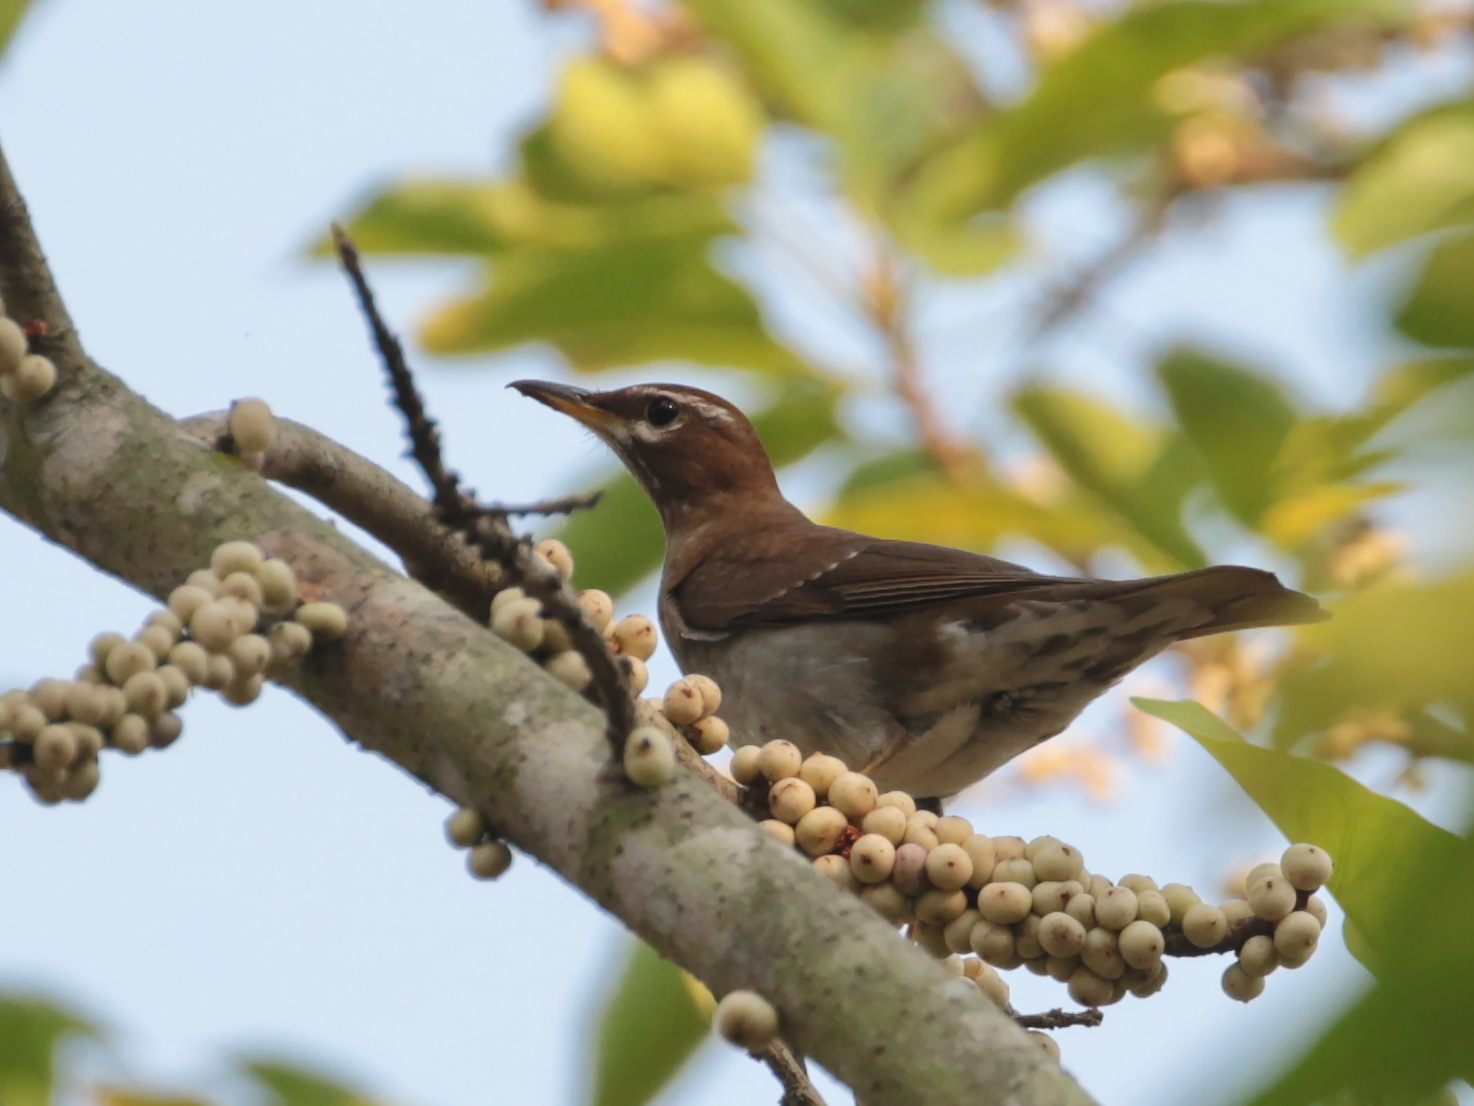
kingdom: Animalia
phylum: Chordata
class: Aves
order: Passeriformes
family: Turdidae
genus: Turdus
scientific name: Turdus feae
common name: Grey-sided thrush
